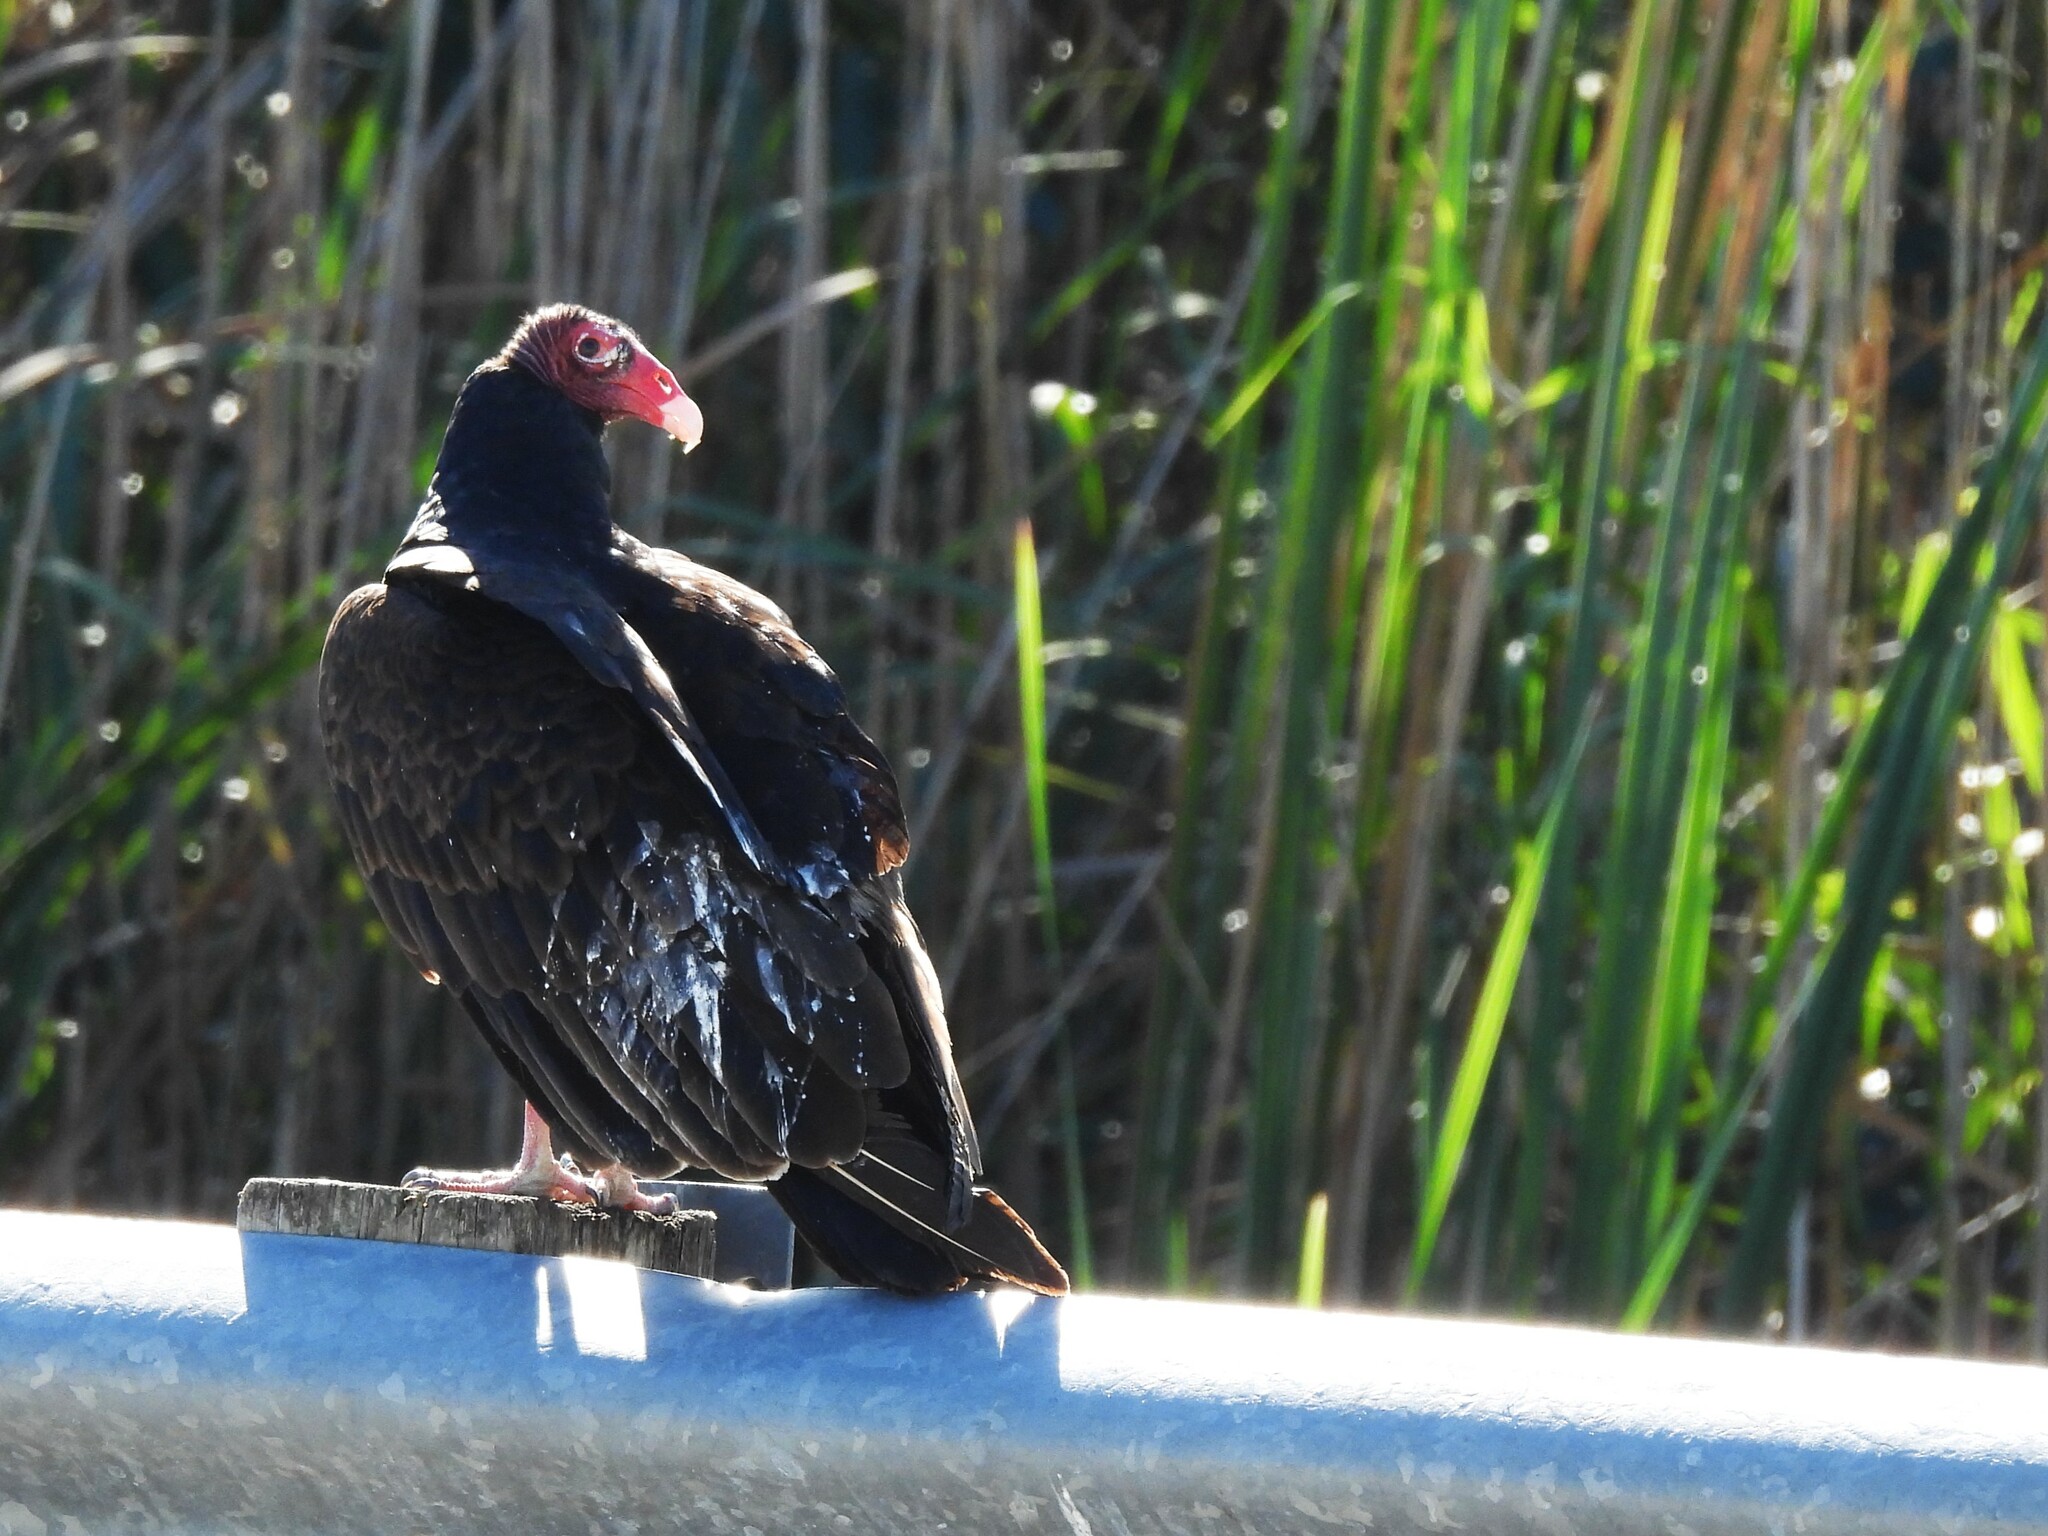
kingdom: Animalia
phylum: Chordata
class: Aves
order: Accipitriformes
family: Cathartidae
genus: Cathartes
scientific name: Cathartes aura
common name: Turkey vulture
